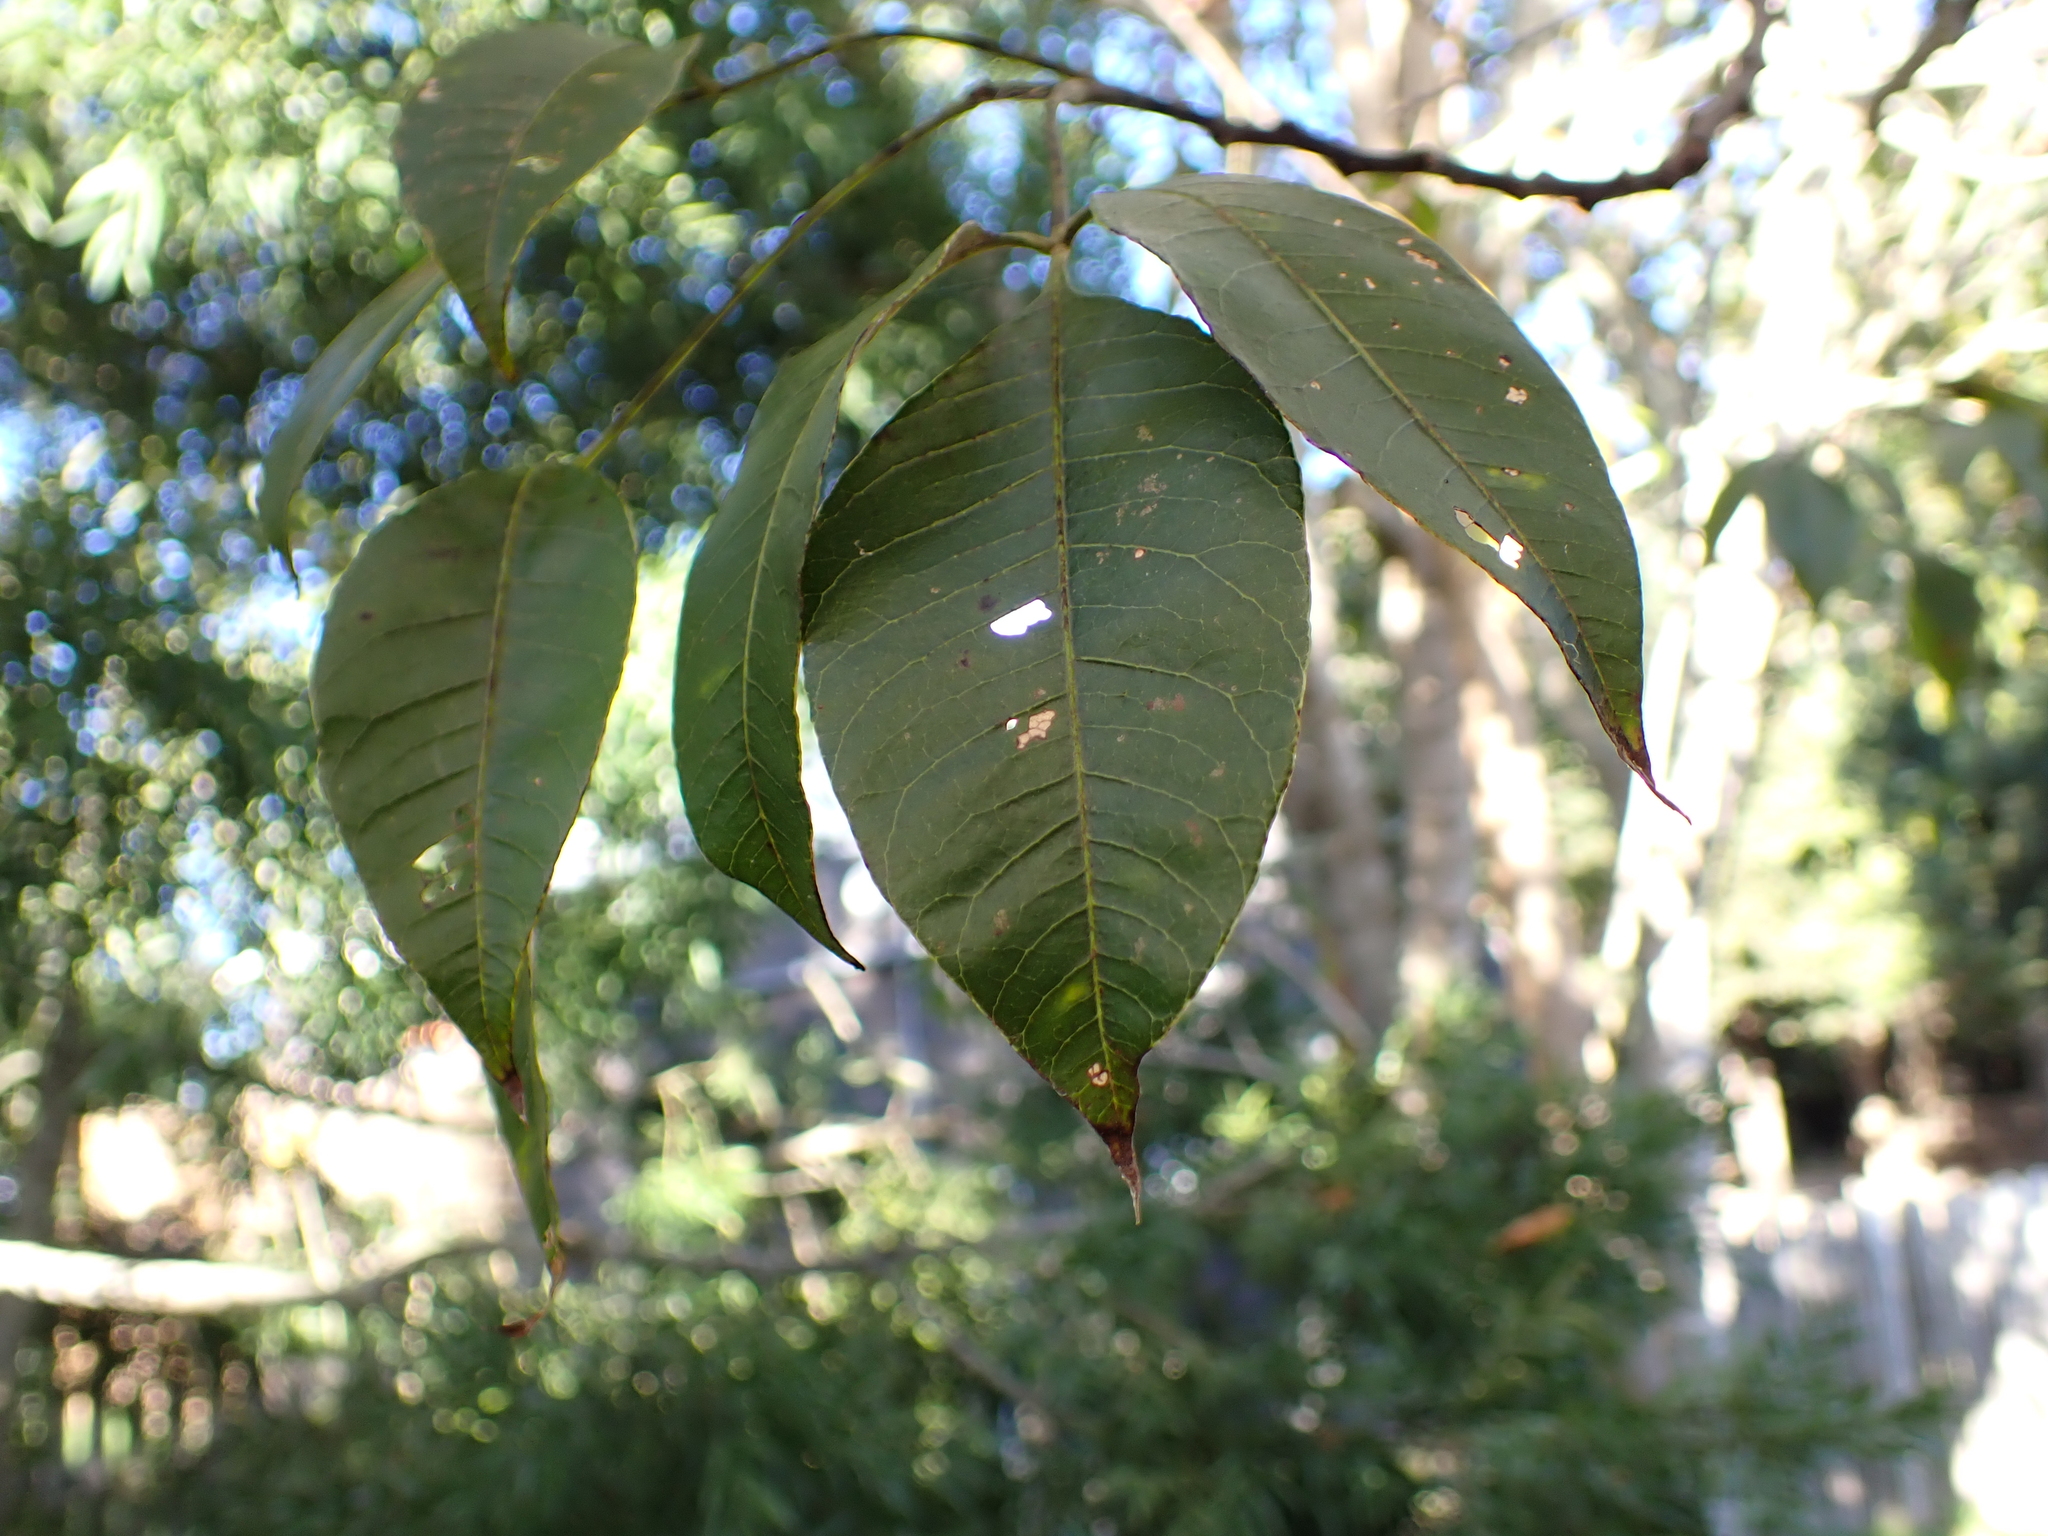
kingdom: Plantae
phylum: Tracheophyta
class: Magnoliopsida
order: Sapindales
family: Anacardiaceae
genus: Searsia
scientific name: Searsia chirindensis
